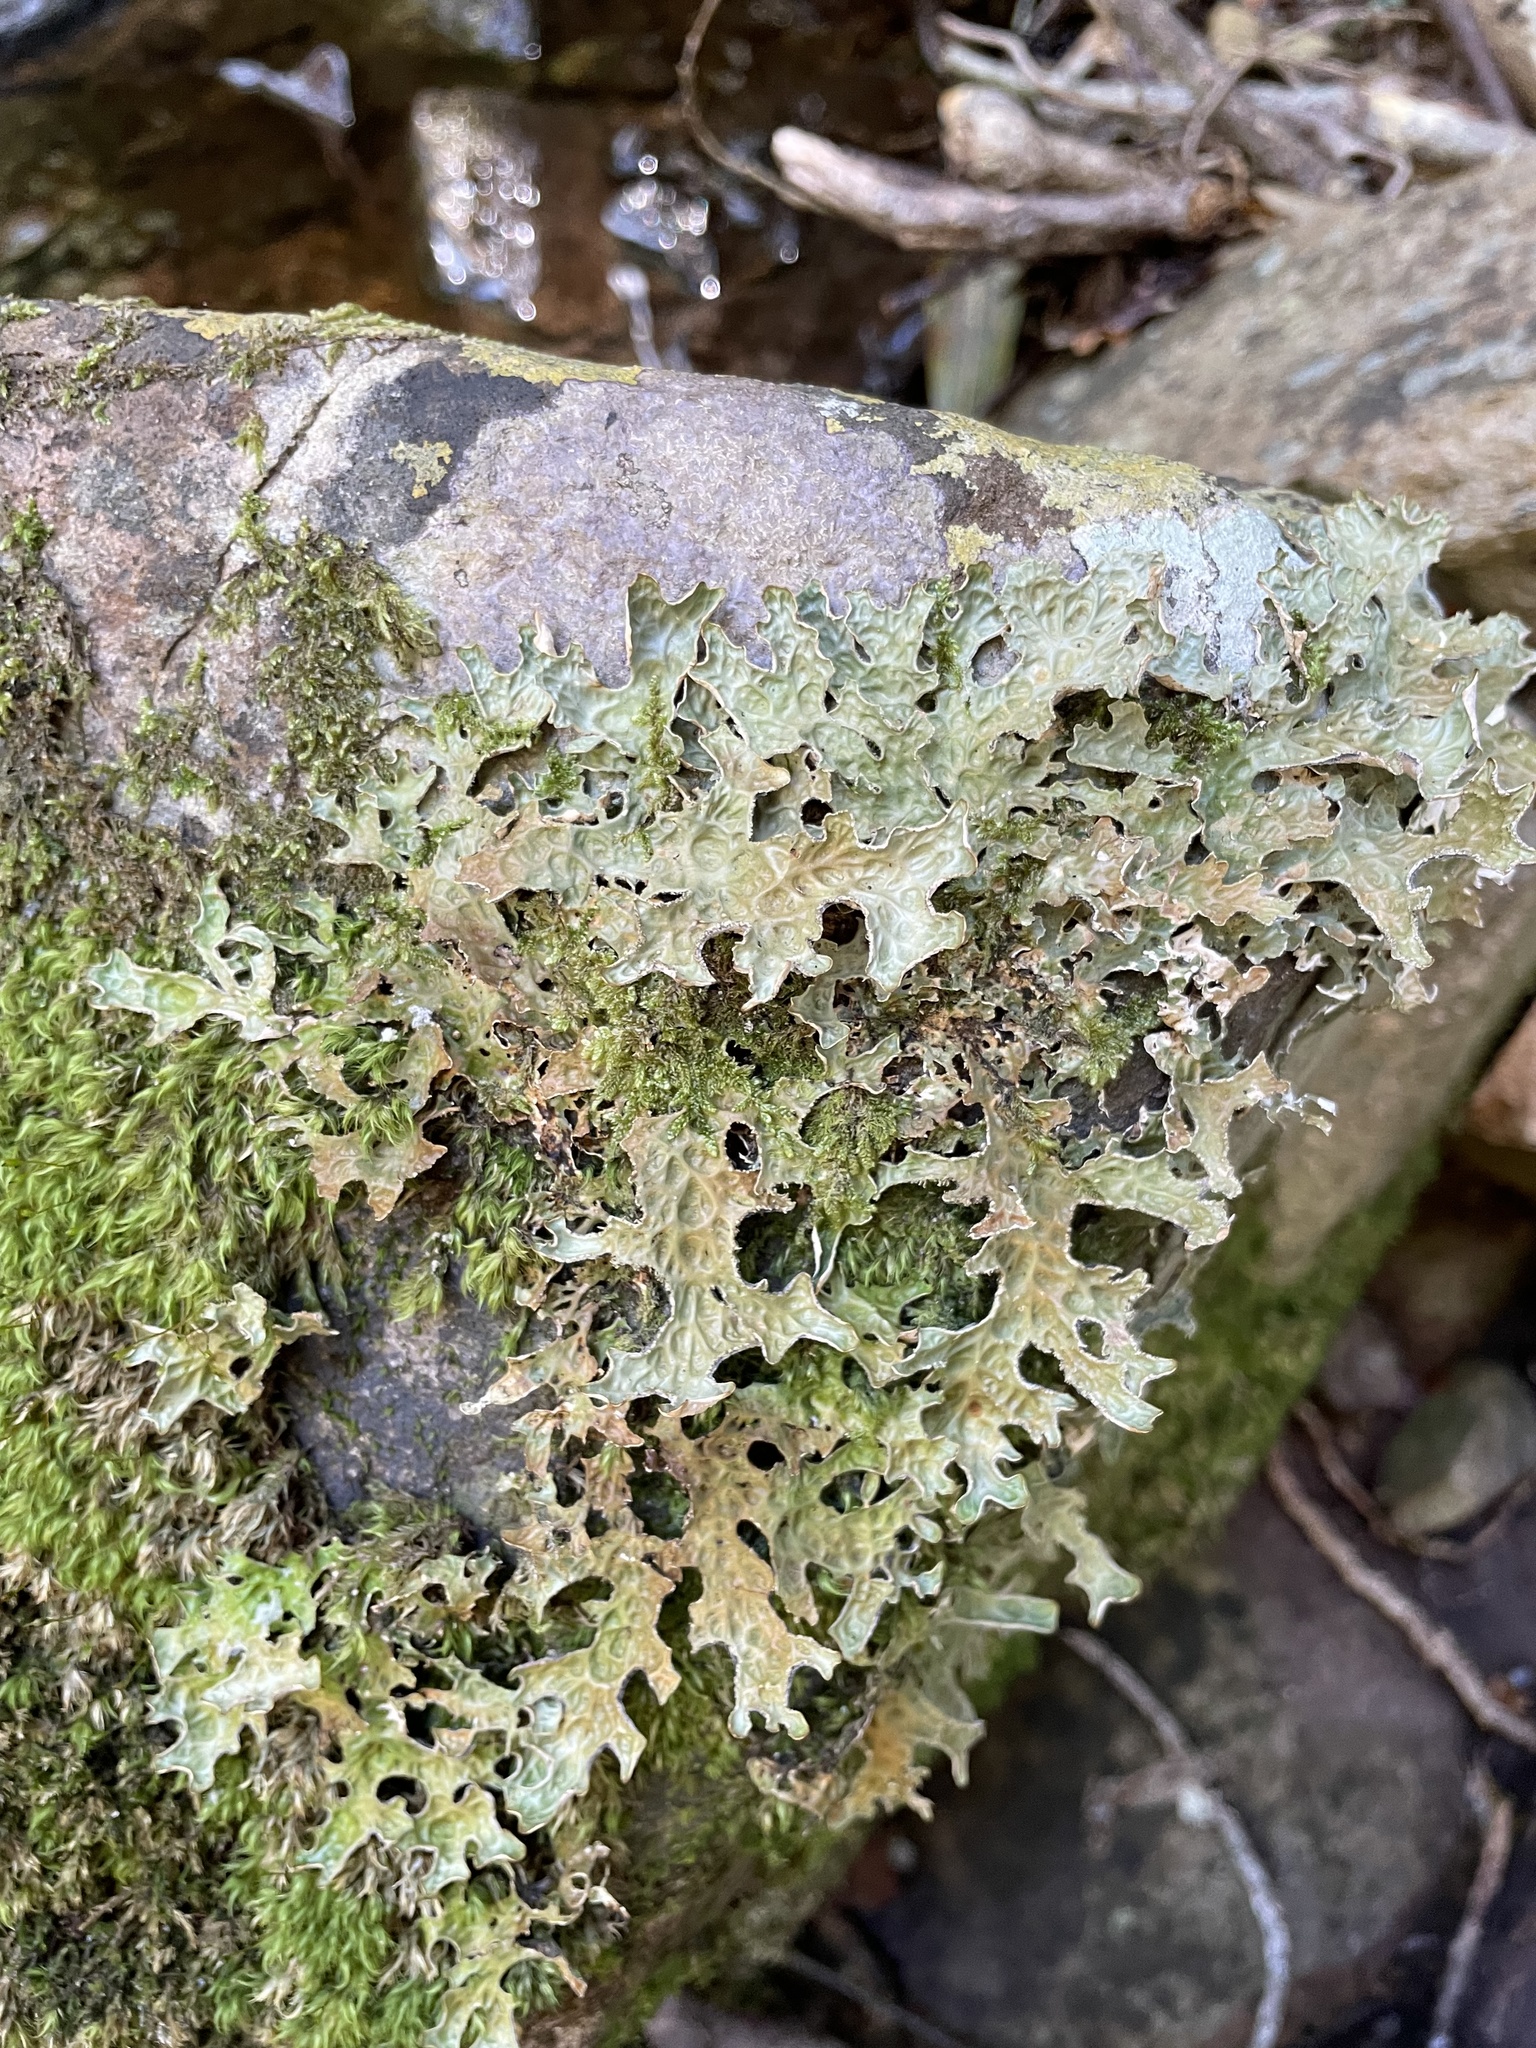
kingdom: Fungi
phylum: Ascomycota
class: Lecanoromycetes
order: Peltigerales
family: Lobariaceae
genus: Lobaria
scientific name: Lobaria pulmonaria
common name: Lungwort
